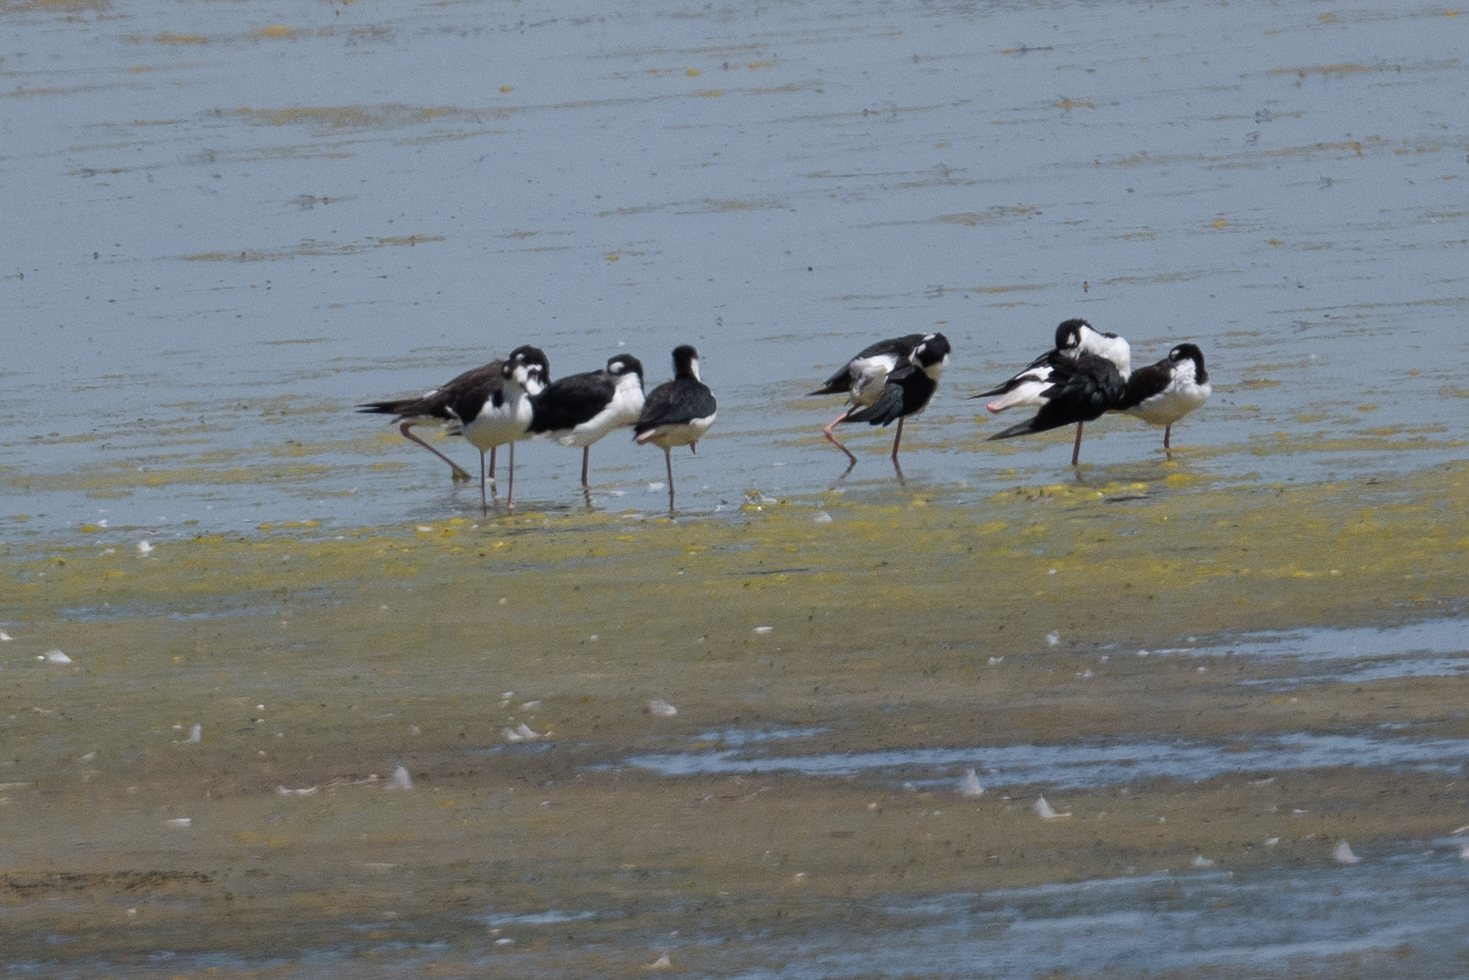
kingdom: Animalia
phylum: Chordata
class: Aves
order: Charadriiformes
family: Recurvirostridae
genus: Himantopus
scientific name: Himantopus mexicanus
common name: Black-necked stilt
